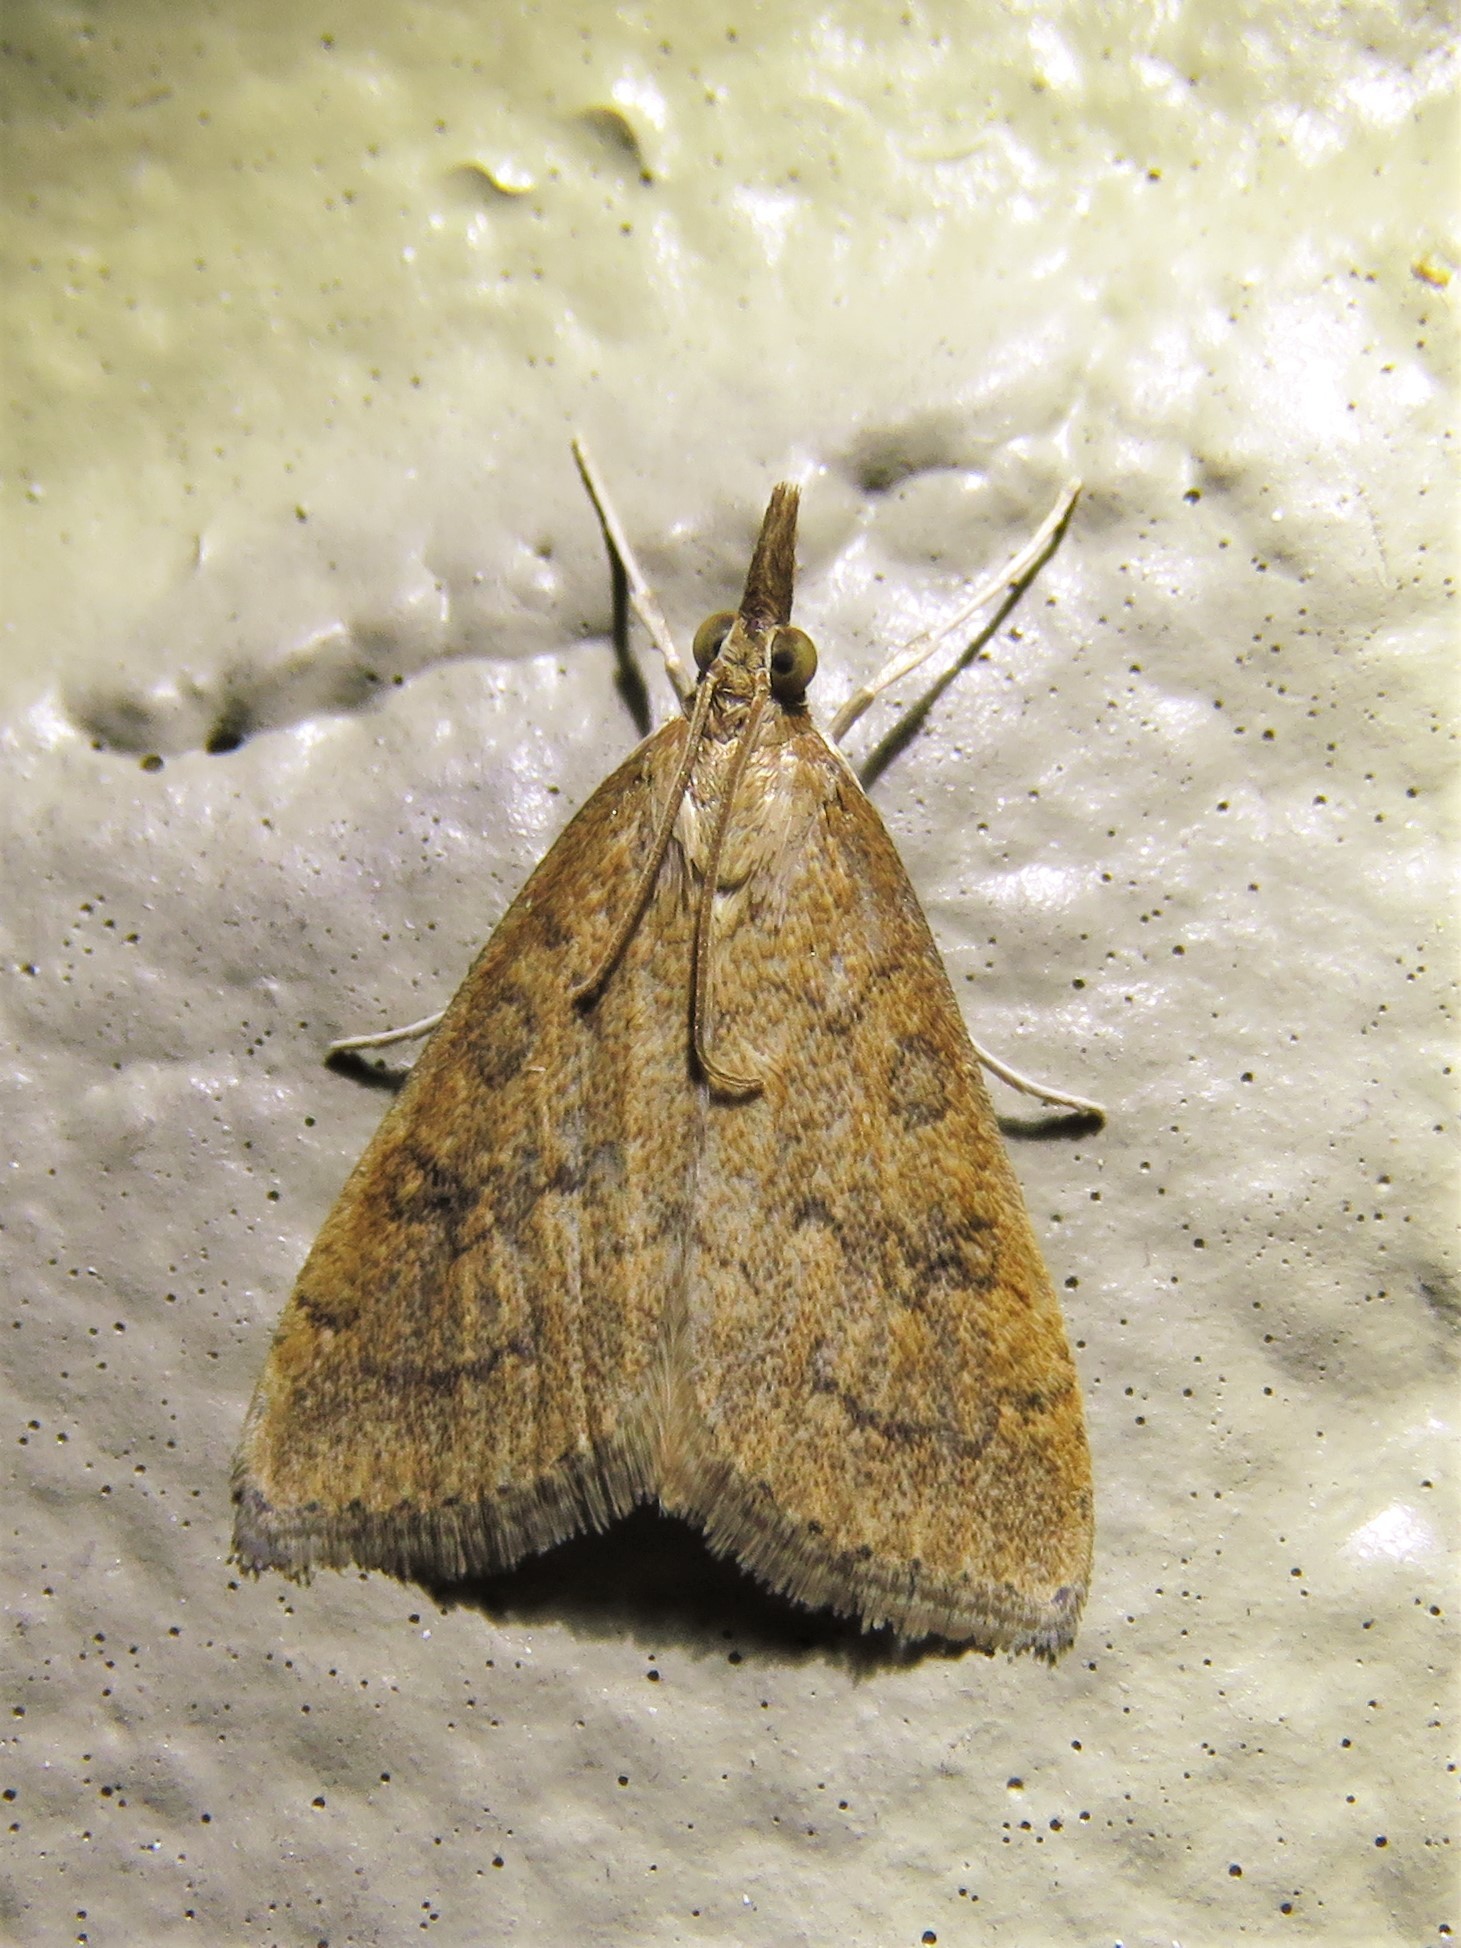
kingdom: Animalia
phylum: Arthropoda
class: Insecta
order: Lepidoptera
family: Crambidae
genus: Udea
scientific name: Udea rubigalis
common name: Celery leaftier moth
